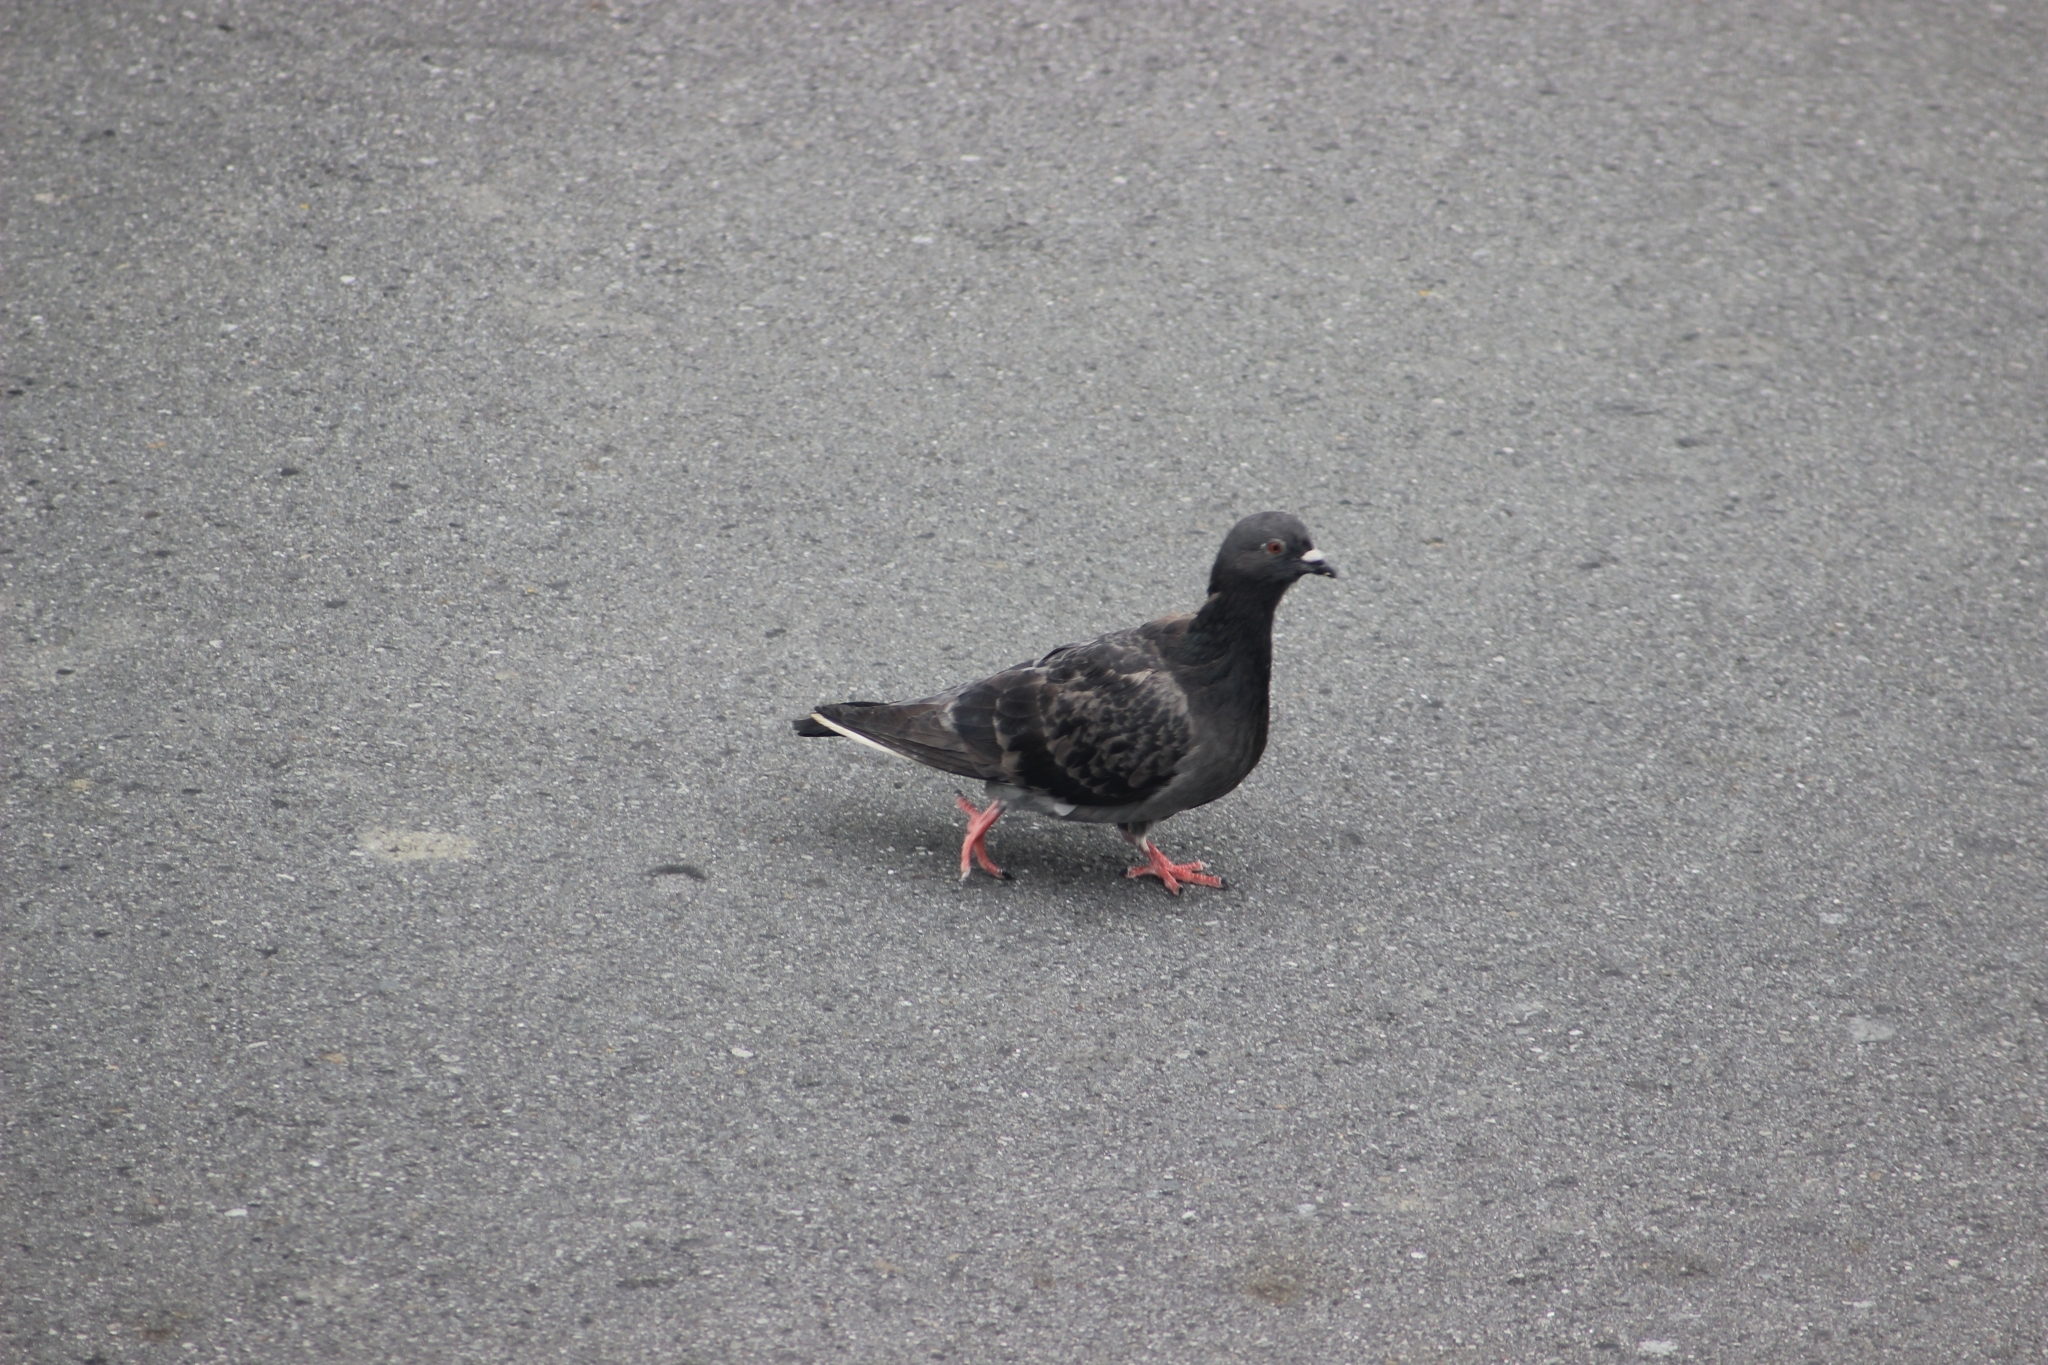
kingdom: Animalia
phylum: Chordata
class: Aves
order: Columbiformes
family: Columbidae
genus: Columba
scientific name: Columba livia
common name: Rock pigeon
